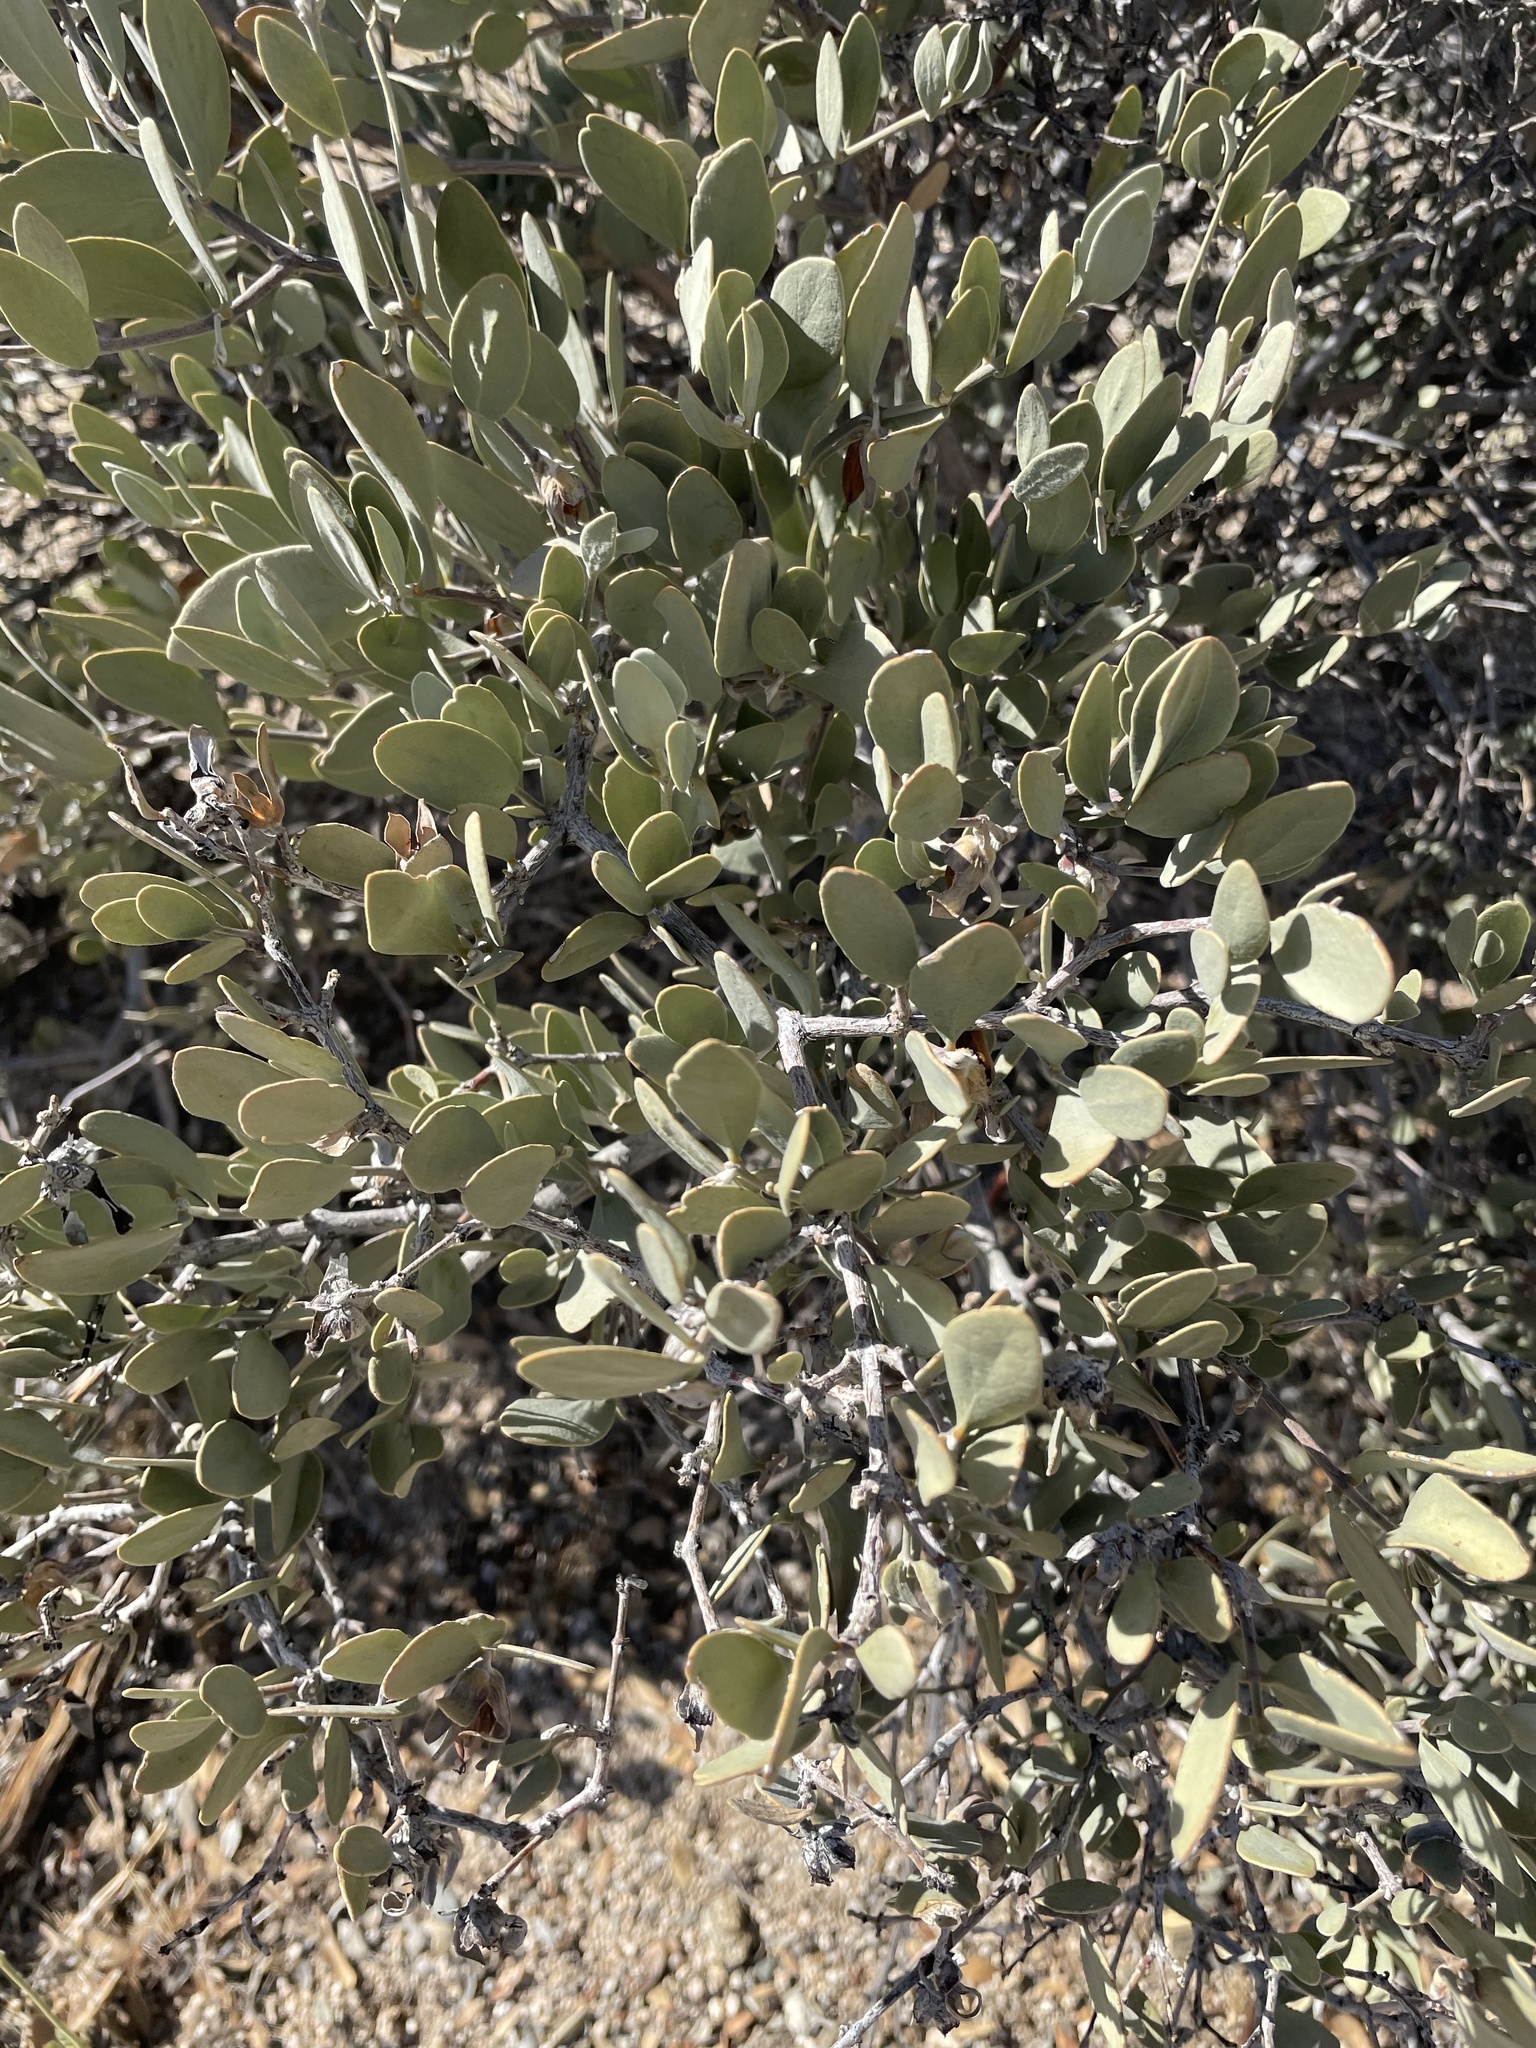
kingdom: Plantae
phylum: Tracheophyta
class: Magnoliopsida
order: Caryophyllales
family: Simmondsiaceae
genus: Simmondsia
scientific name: Simmondsia chinensis
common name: Jojoba
